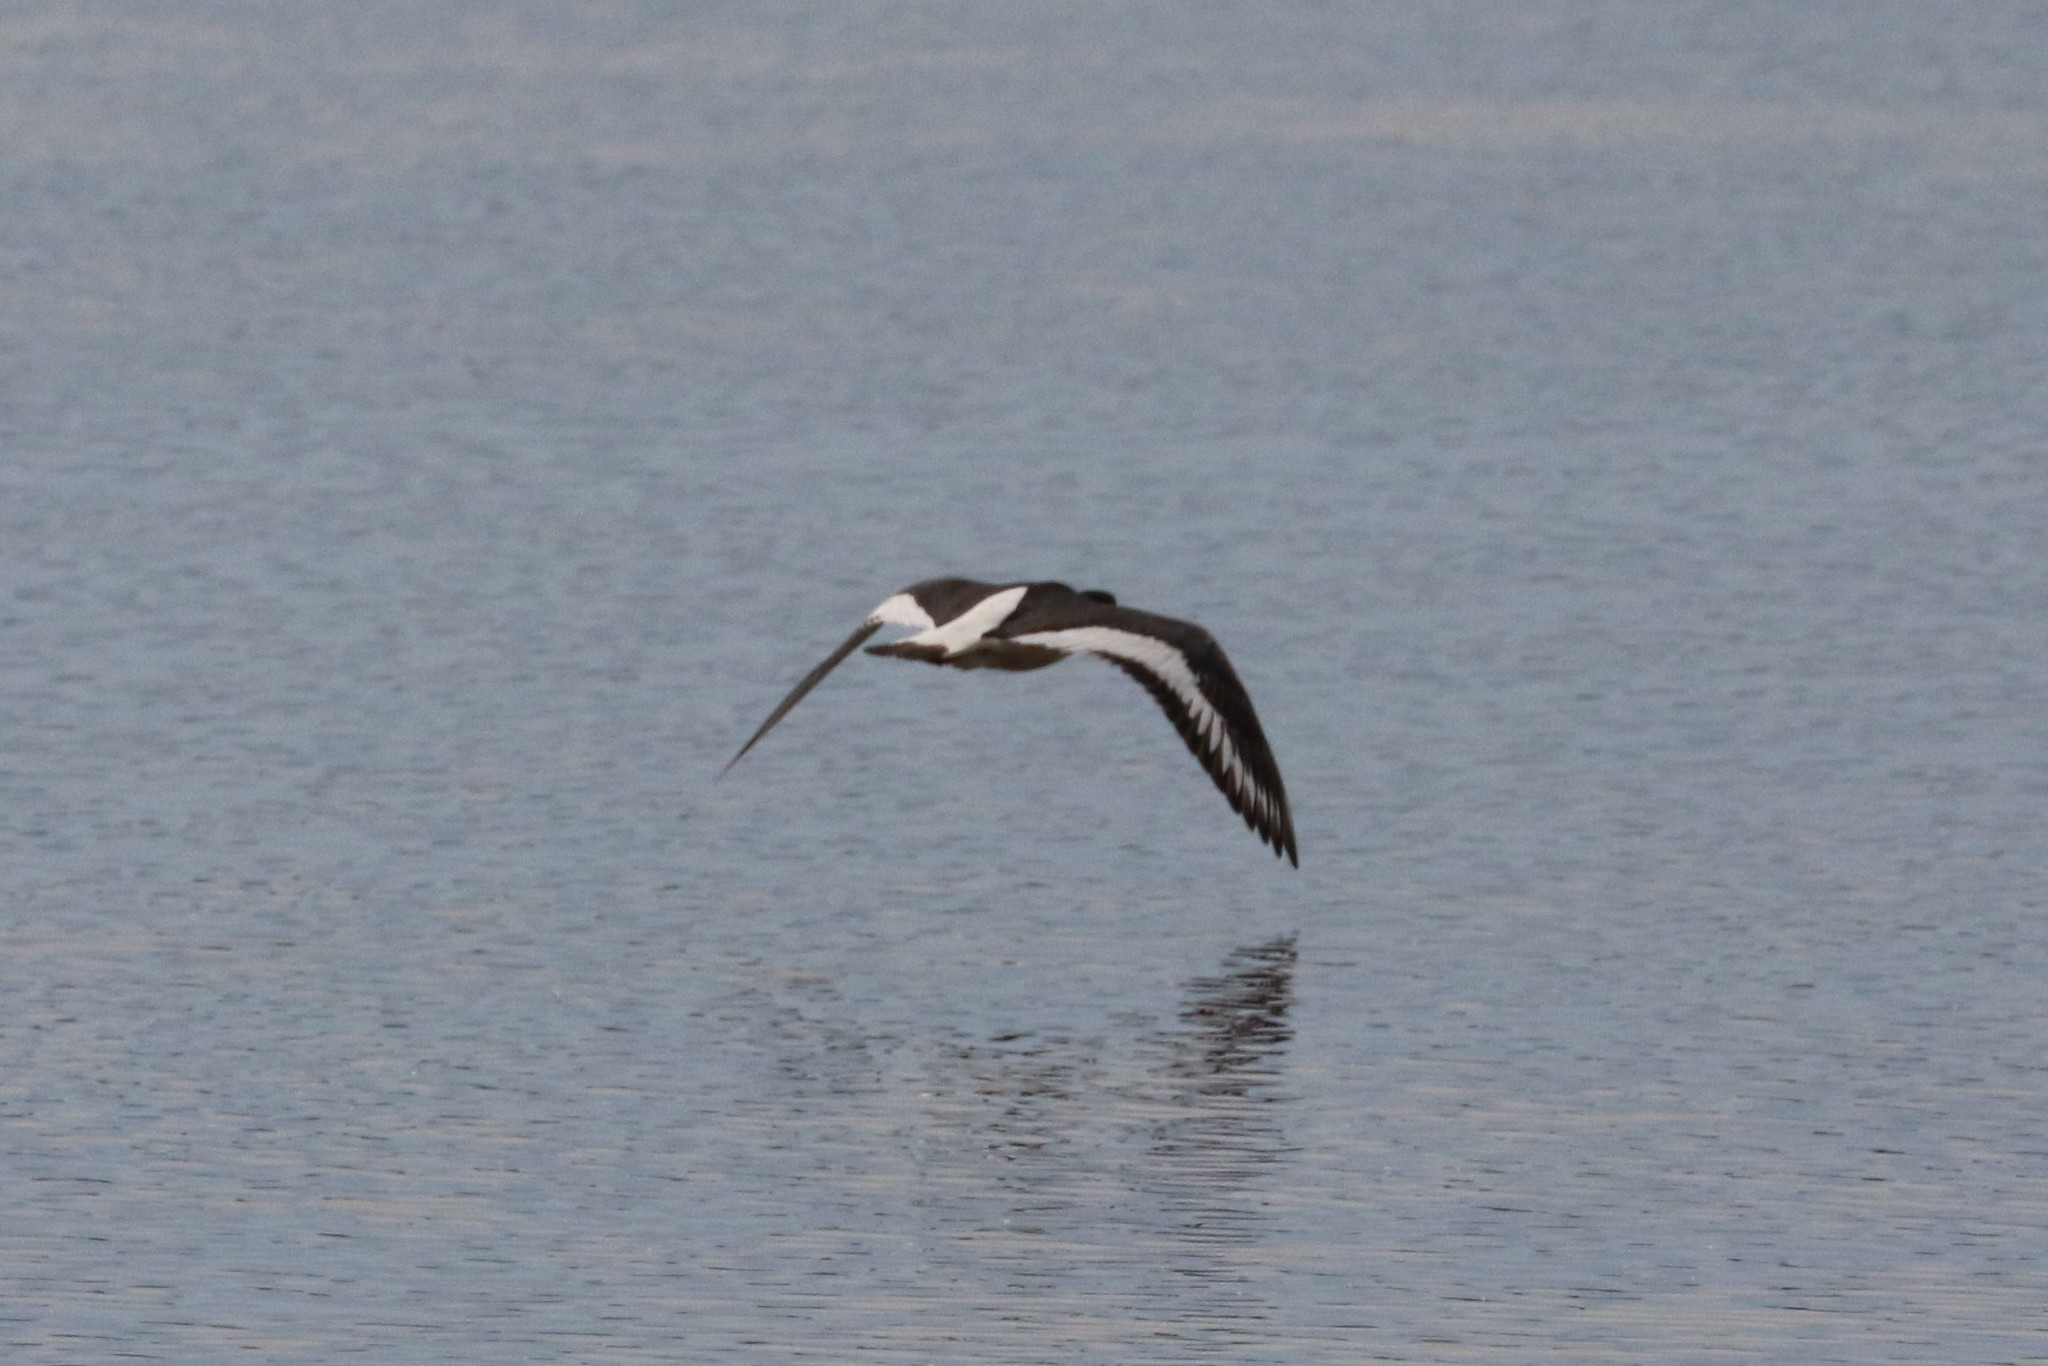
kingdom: Animalia
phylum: Chordata
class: Aves
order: Charadriiformes
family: Haematopodidae
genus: Haematopus
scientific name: Haematopus ostralegus
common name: Eurasian oystercatcher
